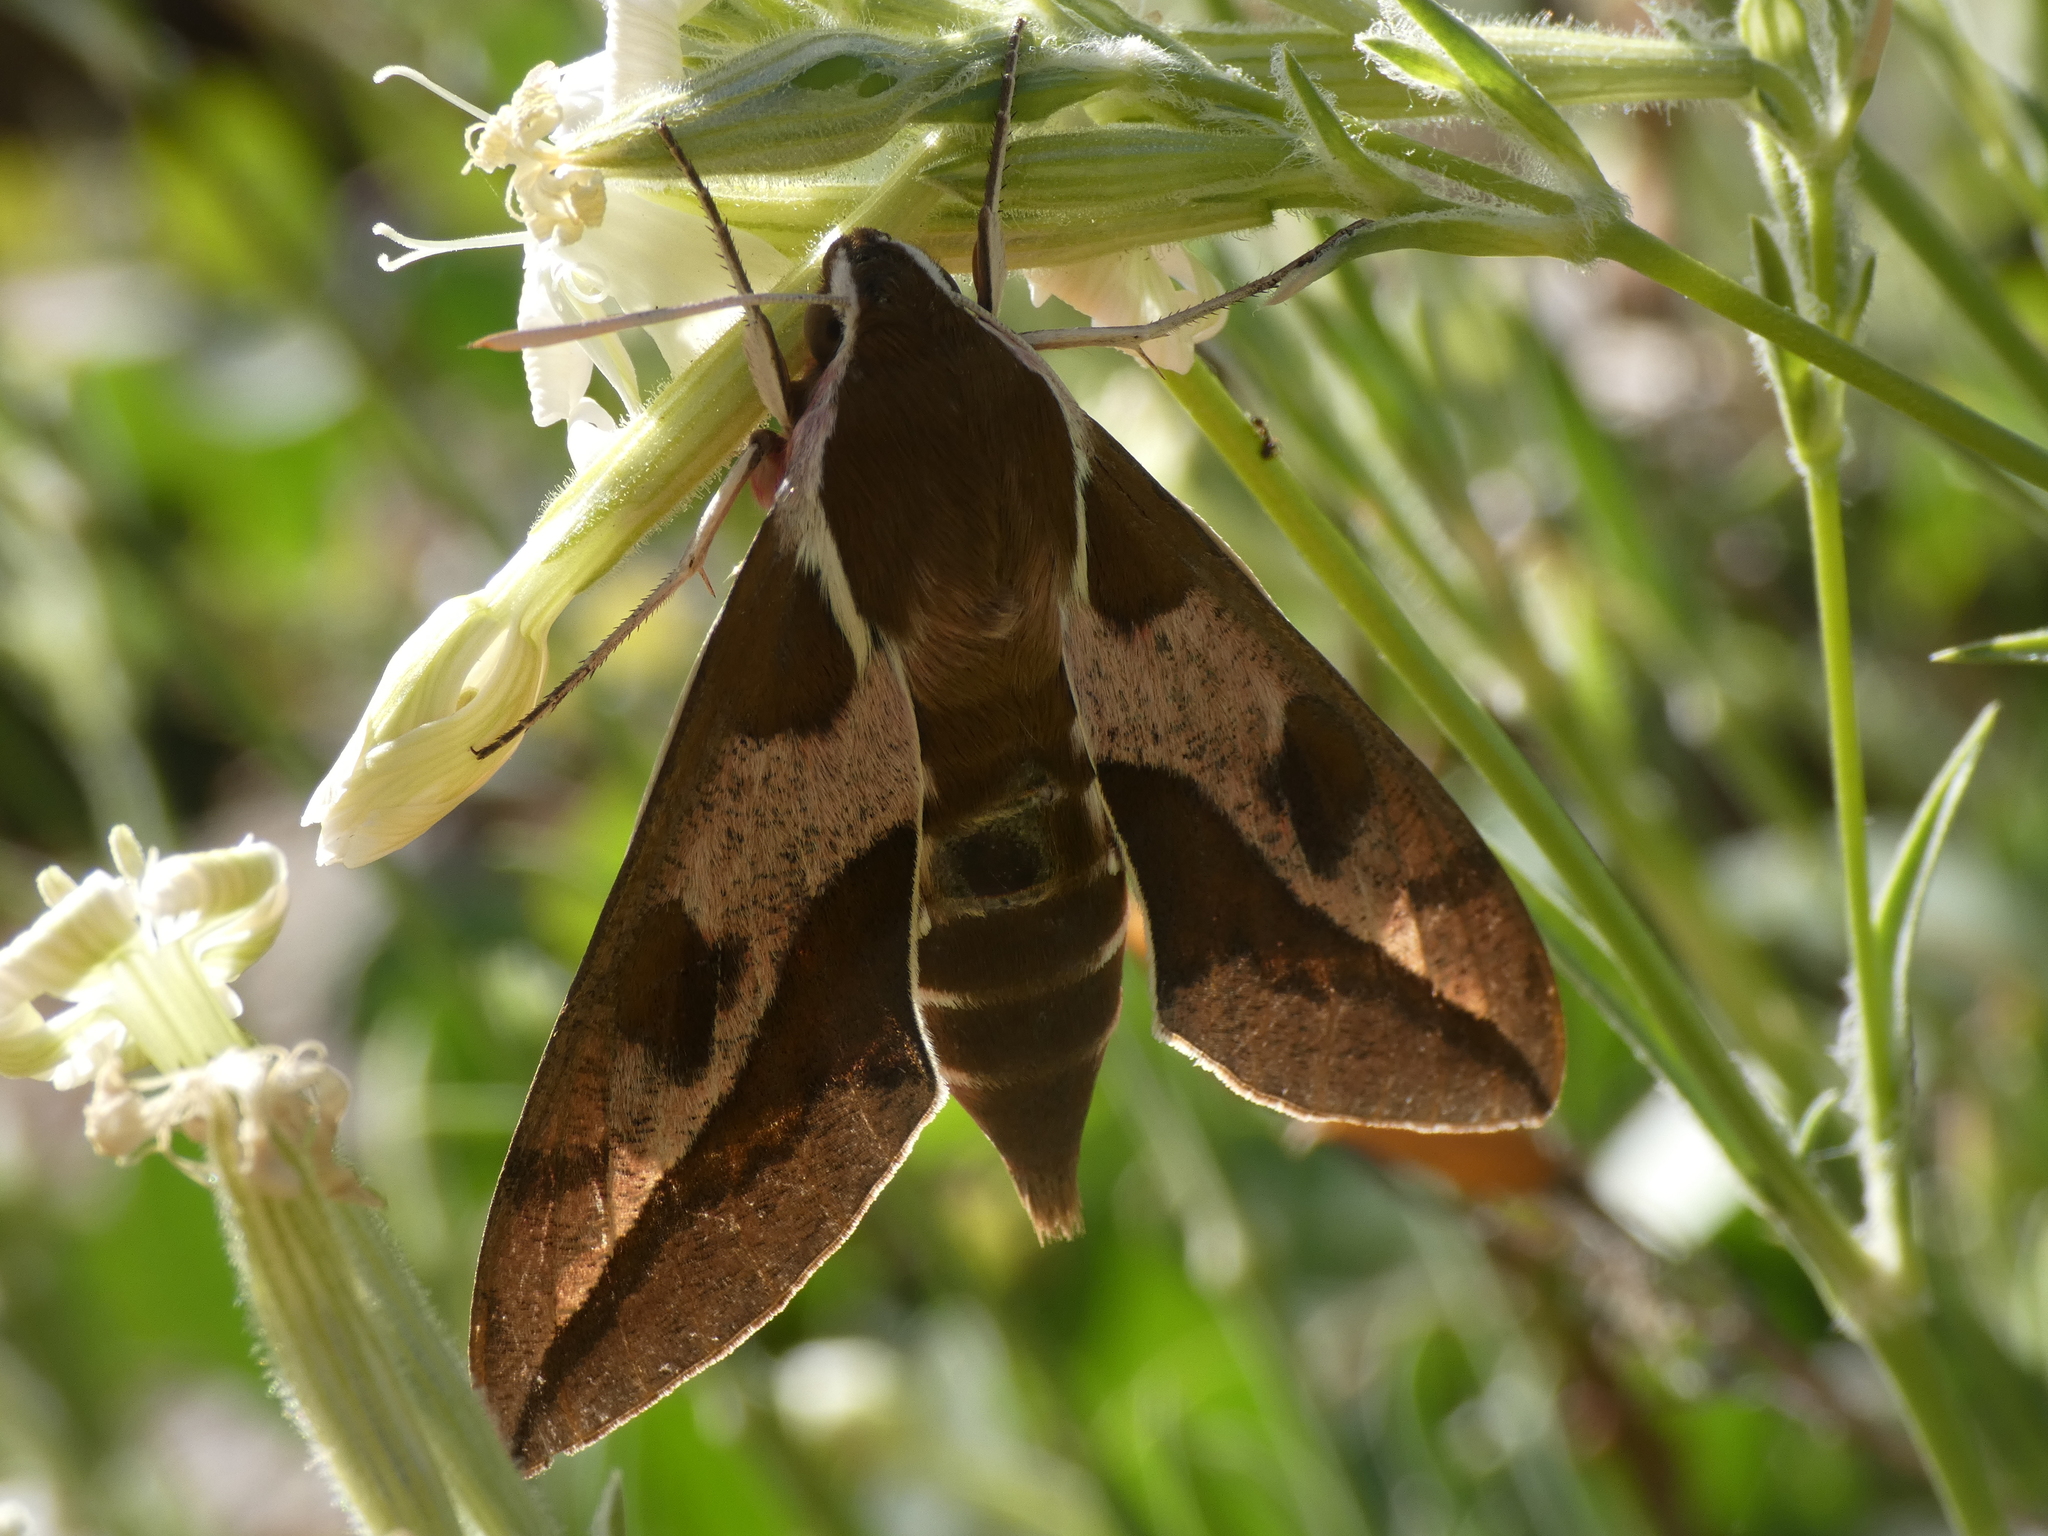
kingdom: Animalia
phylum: Arthropoda
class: Insecta
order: Lepidoptera
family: Sphingidae
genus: Hyles
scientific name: Hyles euphorbiae
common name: Spurge hawk-moth
